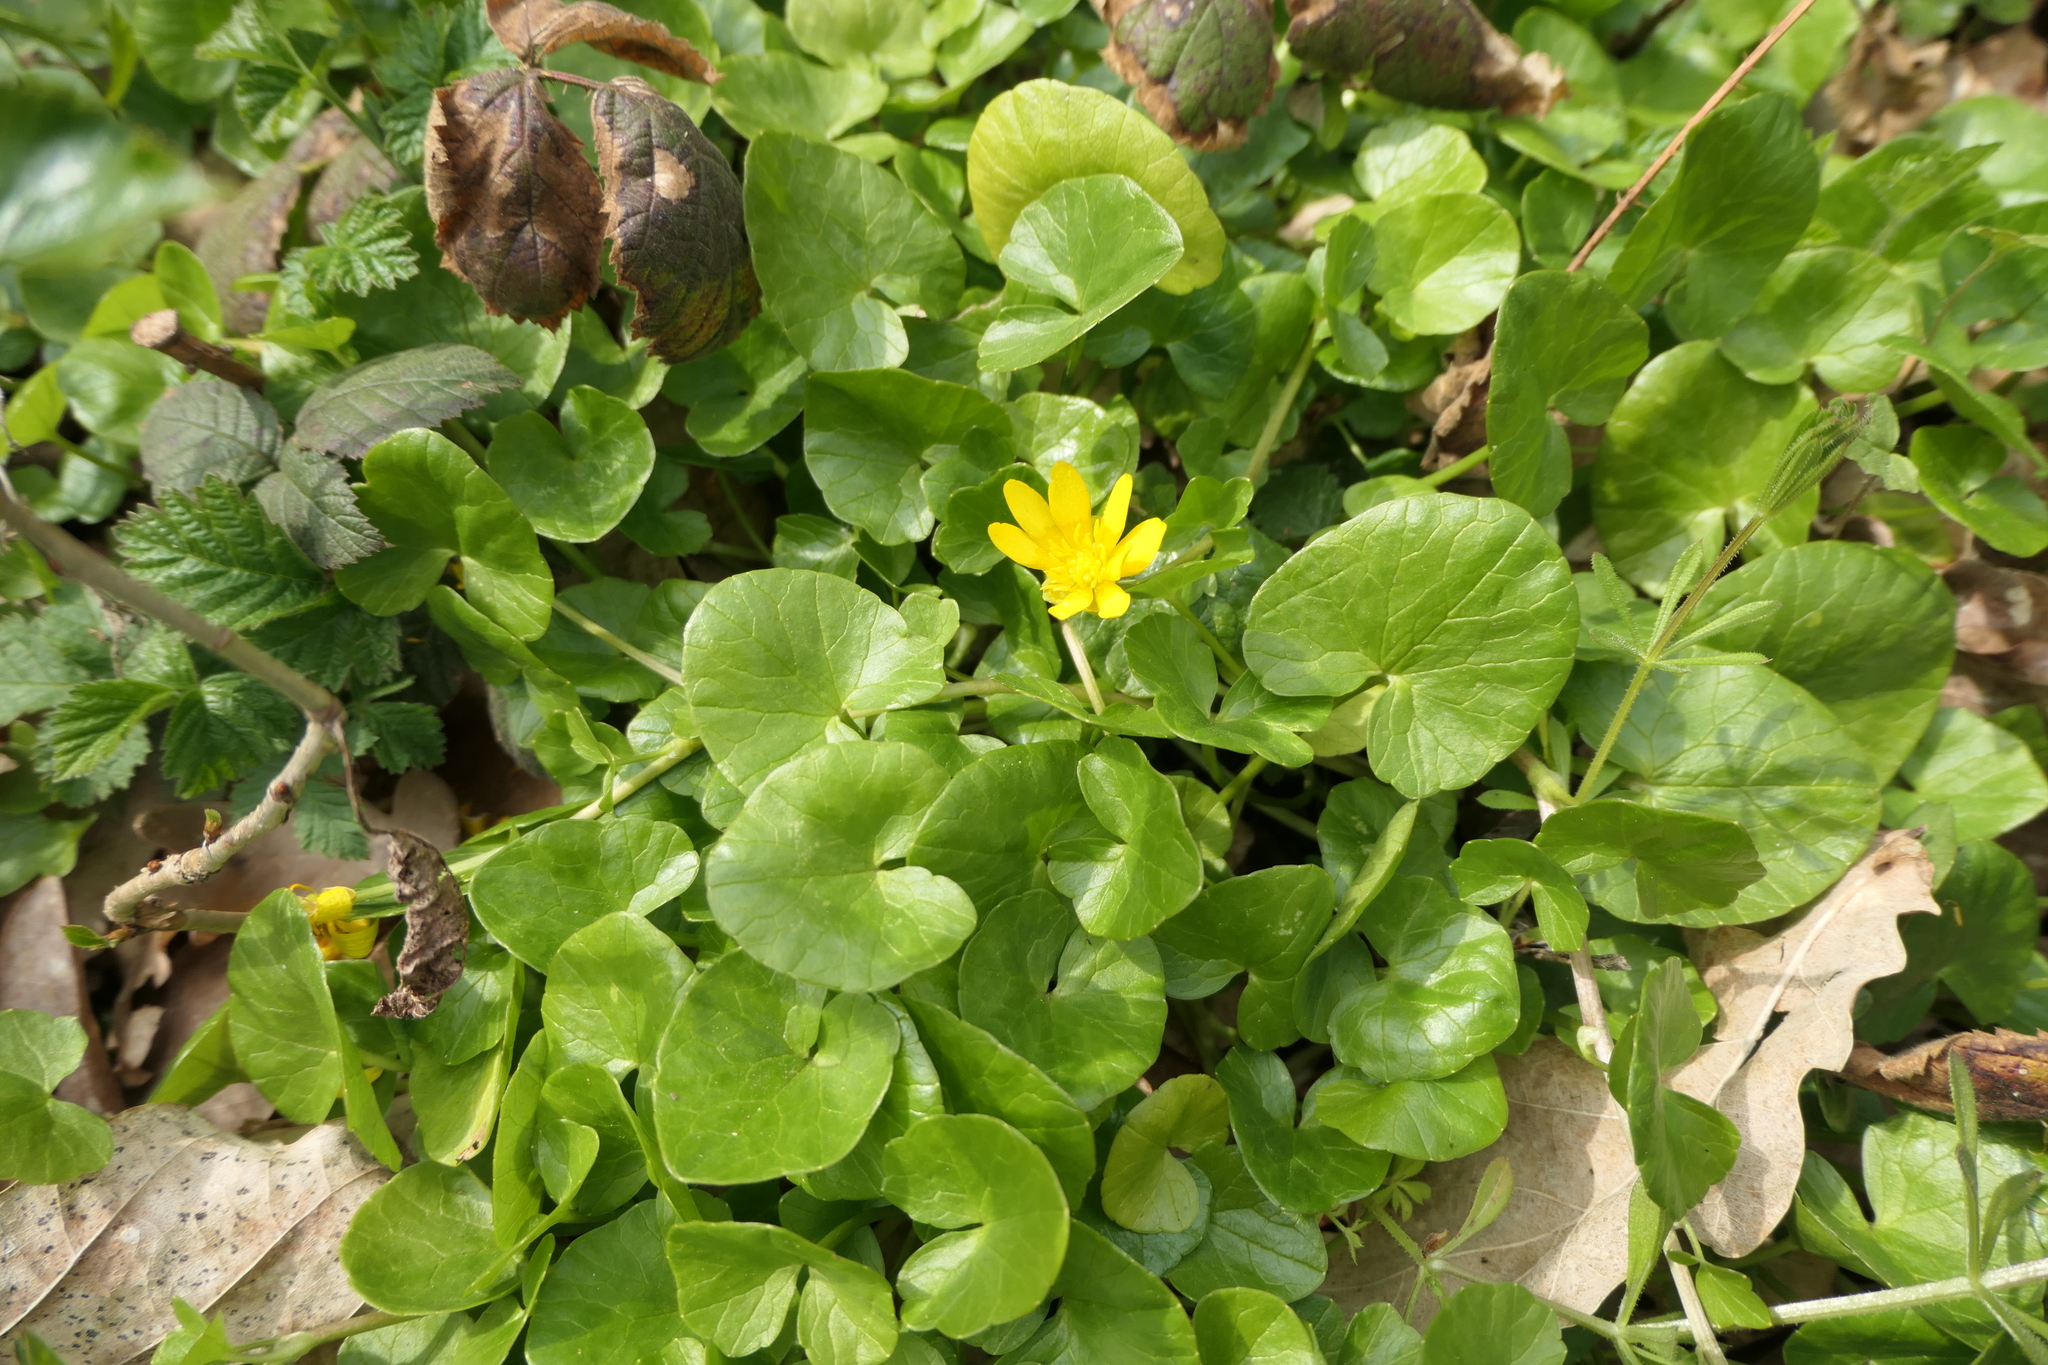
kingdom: Plantae
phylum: Tracheophyta
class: Magnoliopsida
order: Ranunculales
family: Ranunculaceae
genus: Ficaria
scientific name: Ficaria verna
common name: Lesser celandine
